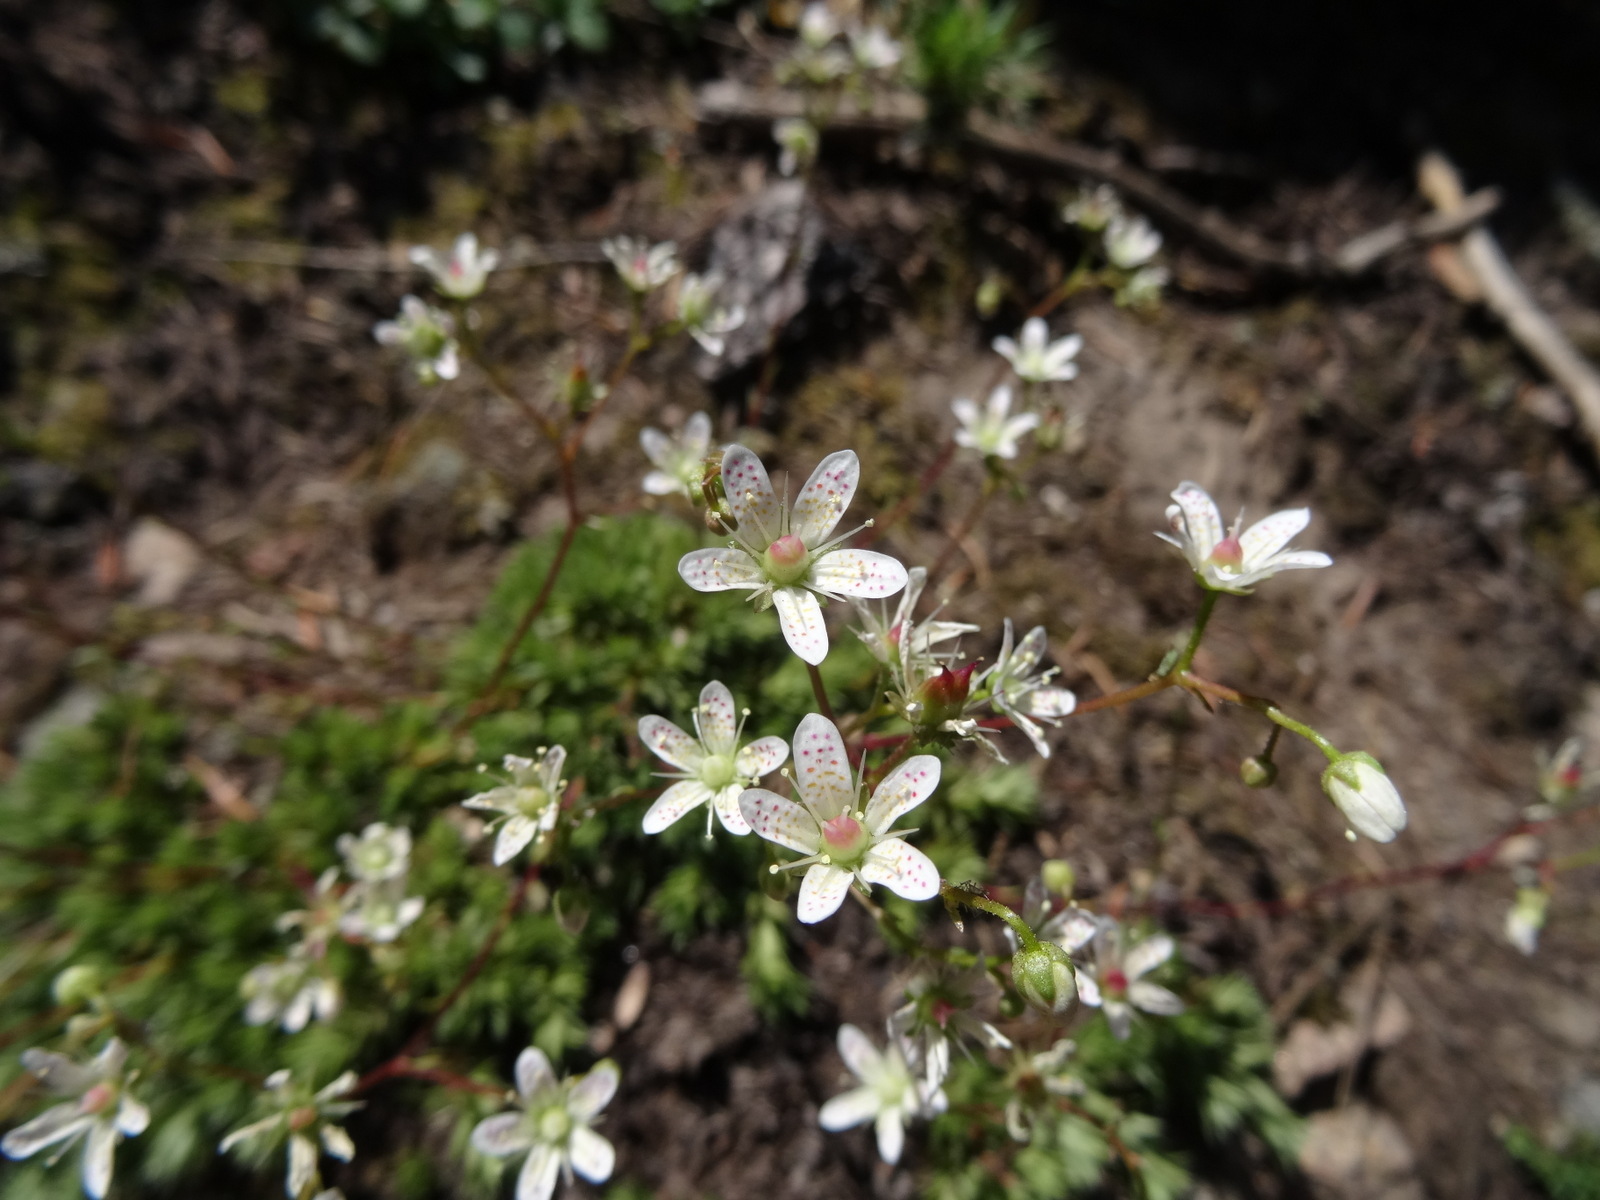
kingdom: Plantae
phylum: Tracheophyta
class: Magnoliopsida
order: Saxifragales
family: Saxifragaceae
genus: Saxifraga
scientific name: Saxifraga bronchialis
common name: Matted saxifrage
